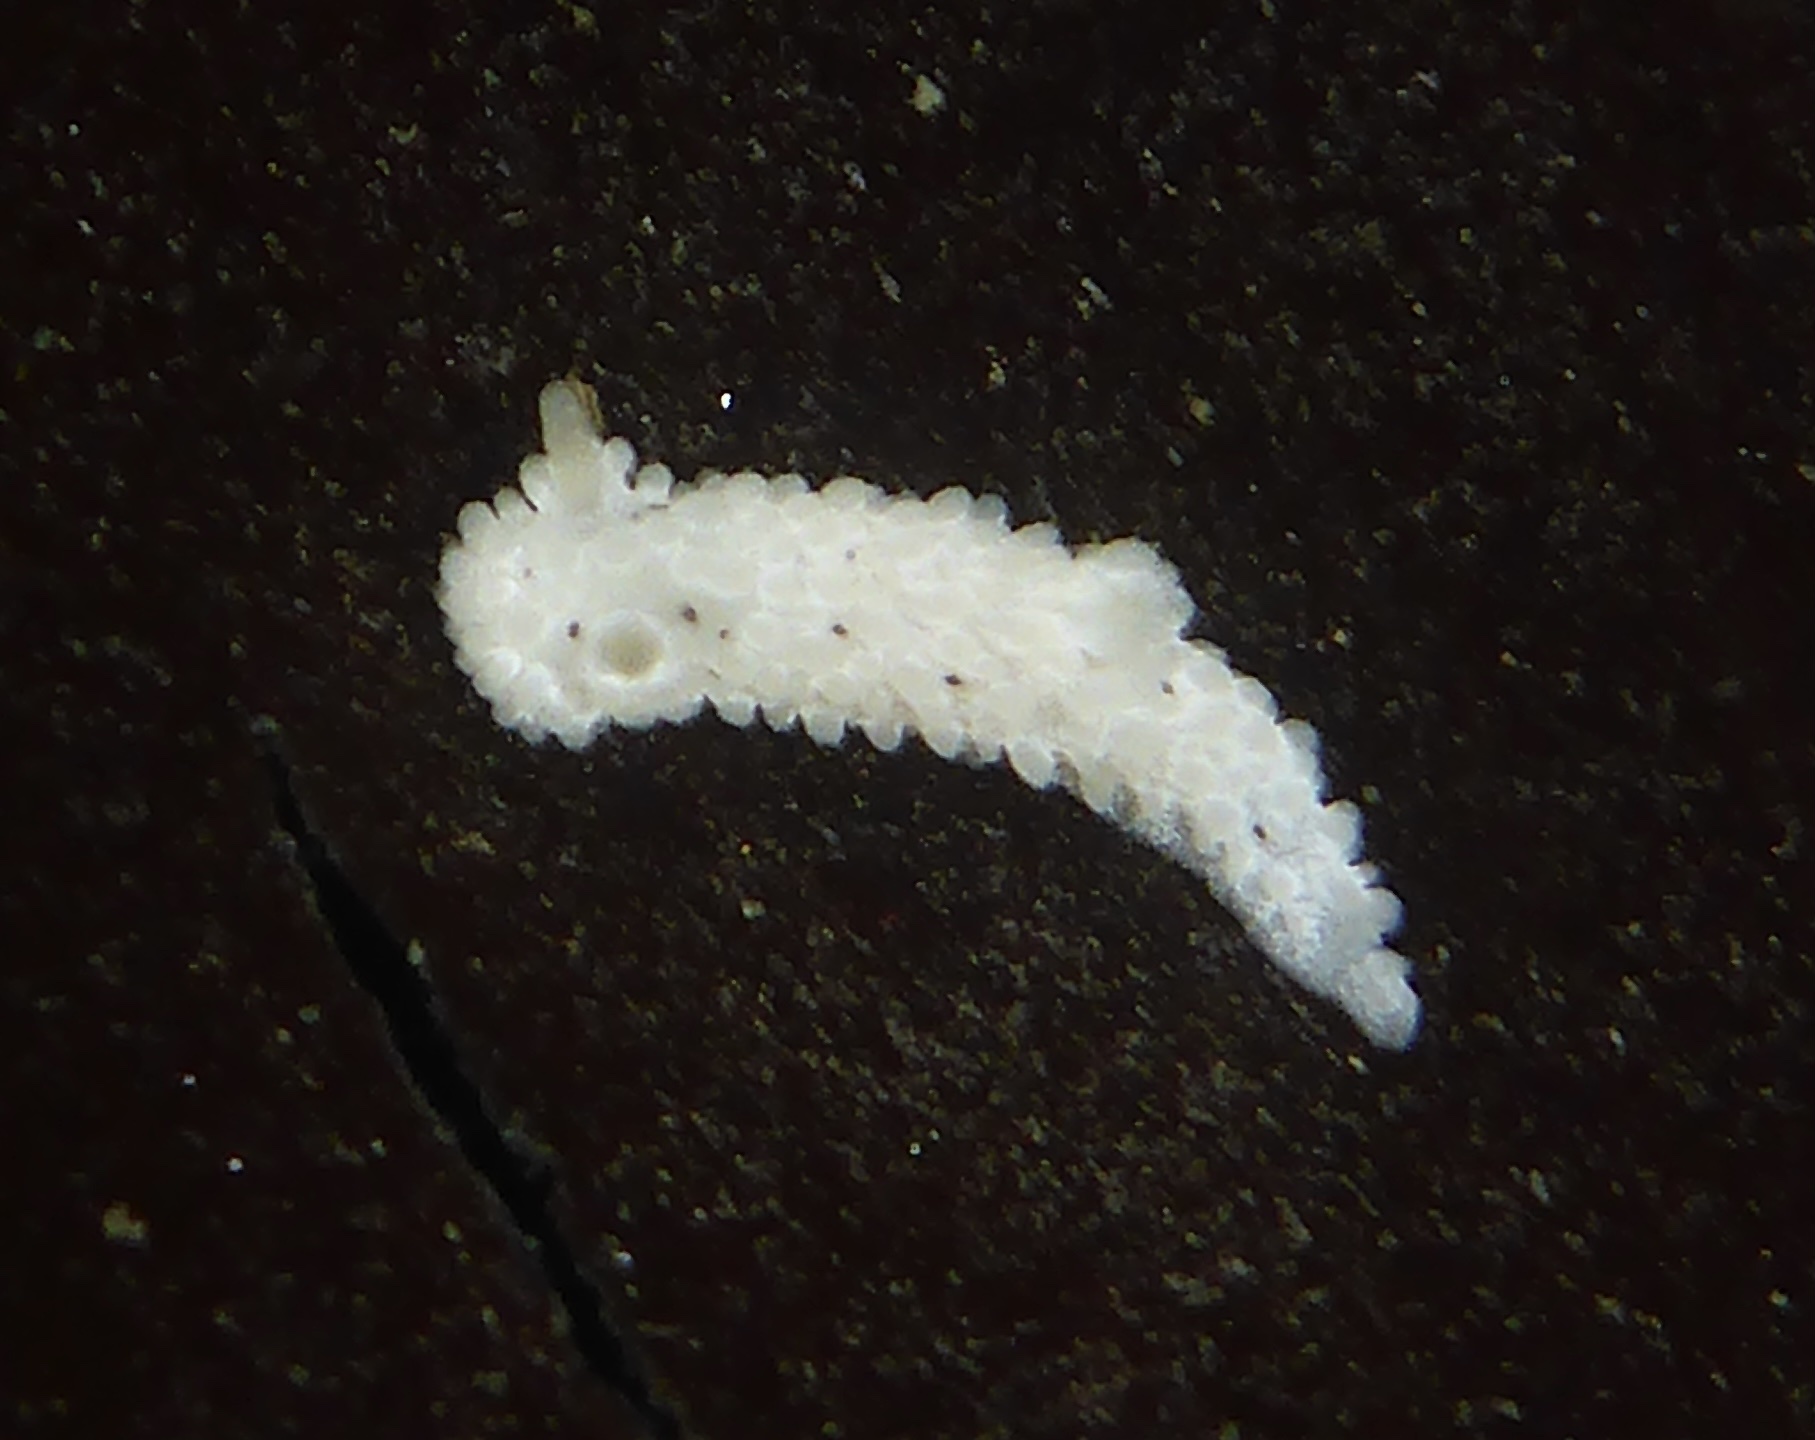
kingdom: Animalia
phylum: Mollusca
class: Gastropoda
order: Nudibranchia
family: Aegiridae
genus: Aegires
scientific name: Aegires albopunctatus
